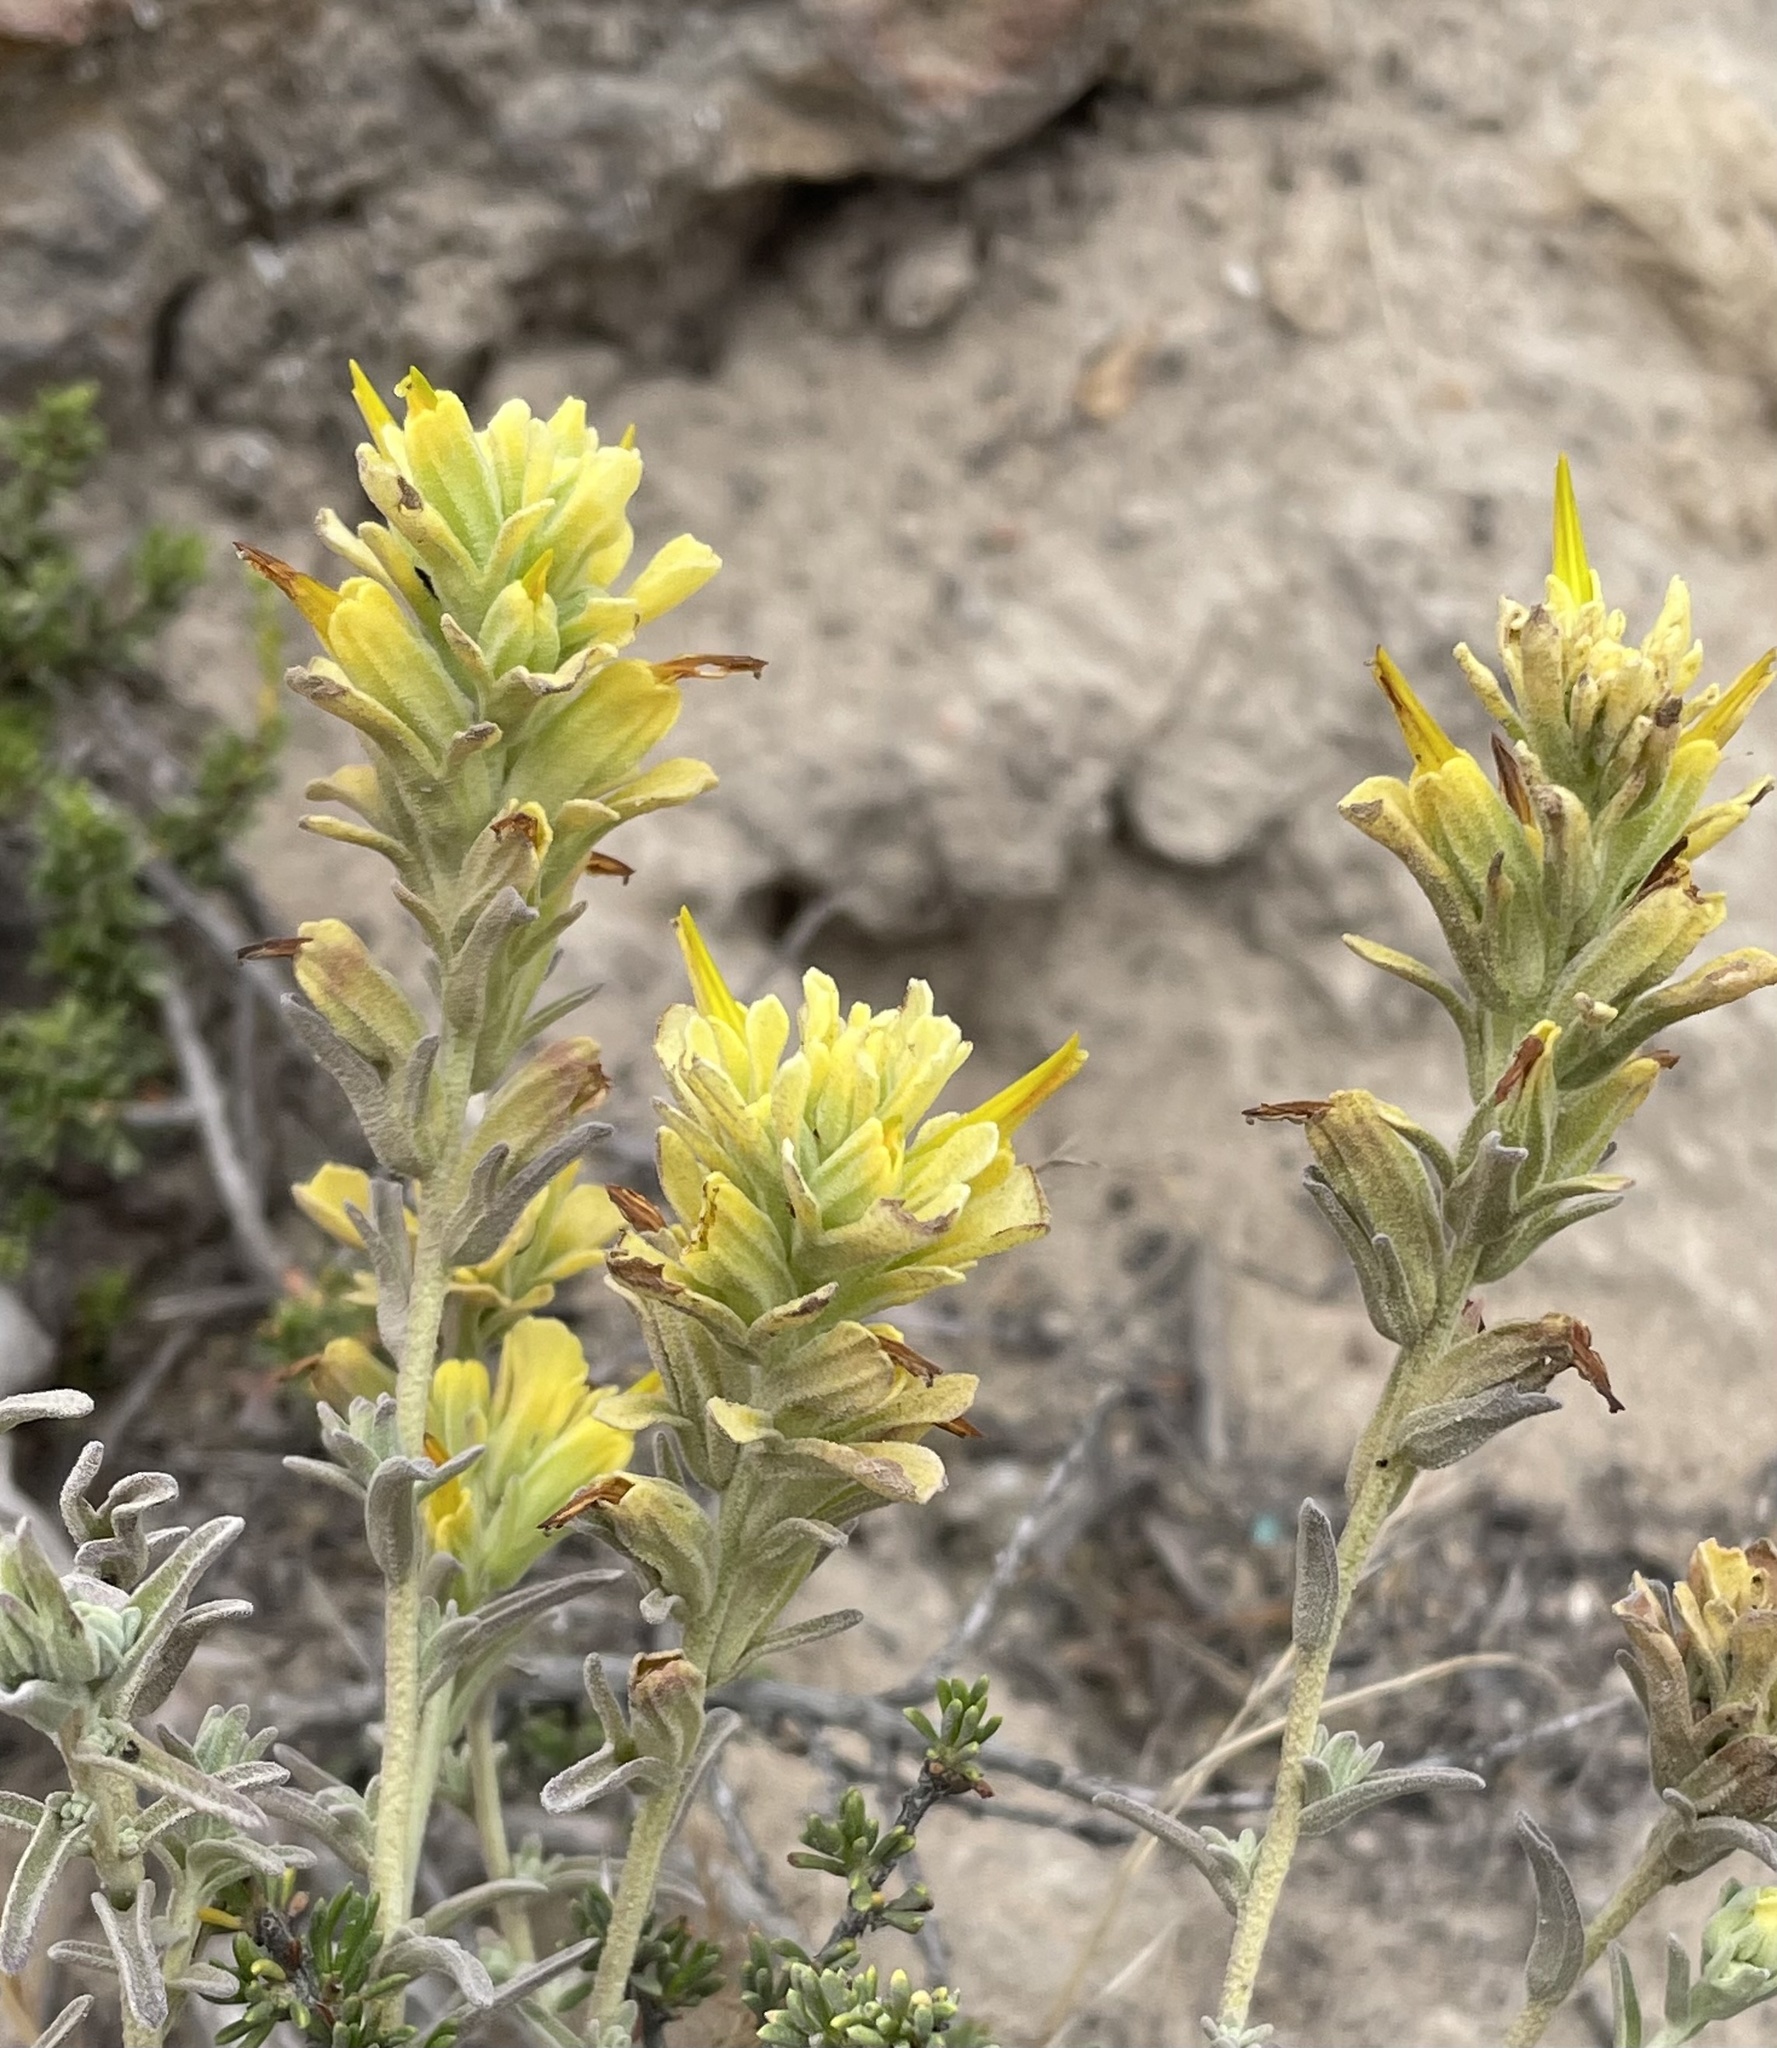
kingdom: Plantae
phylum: Tracheophyta
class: Magnoliopsida
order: Lamiales
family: Orobanchaceae
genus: Castilleja
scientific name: Castilleja foliolosa
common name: Woolly indian paintbrush
